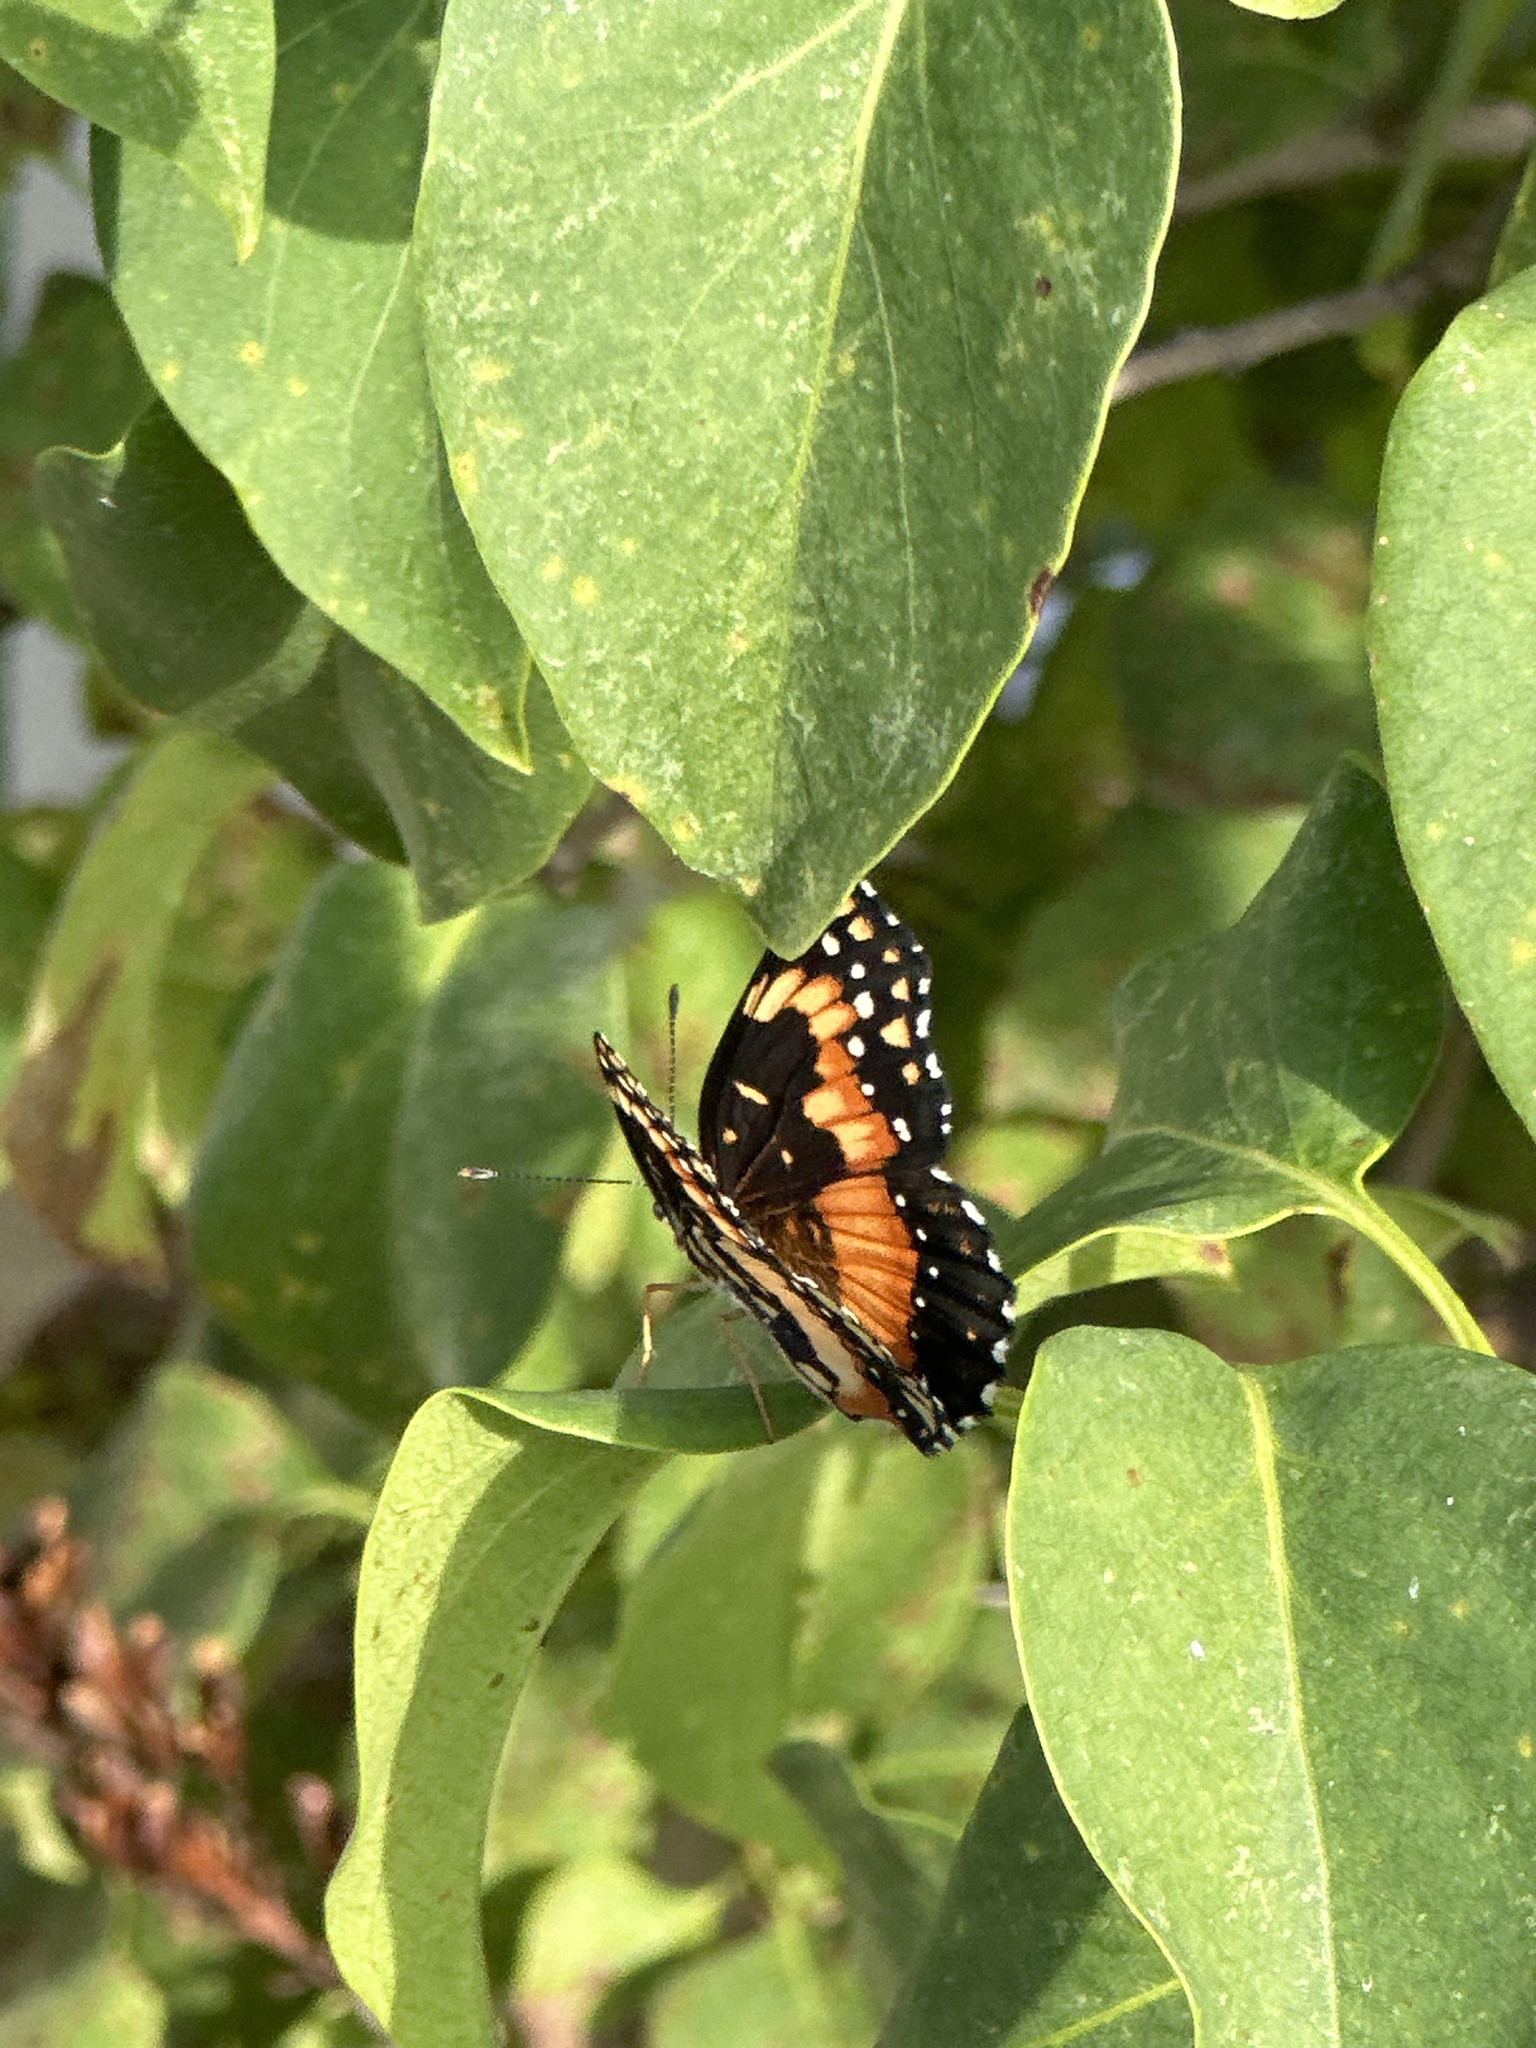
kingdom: Animalia
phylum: Arthropoda
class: Insecta
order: Lepidoptera
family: Nymphalidae
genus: Chlosyne
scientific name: Chlosyne lacinia
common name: Bordered patch
